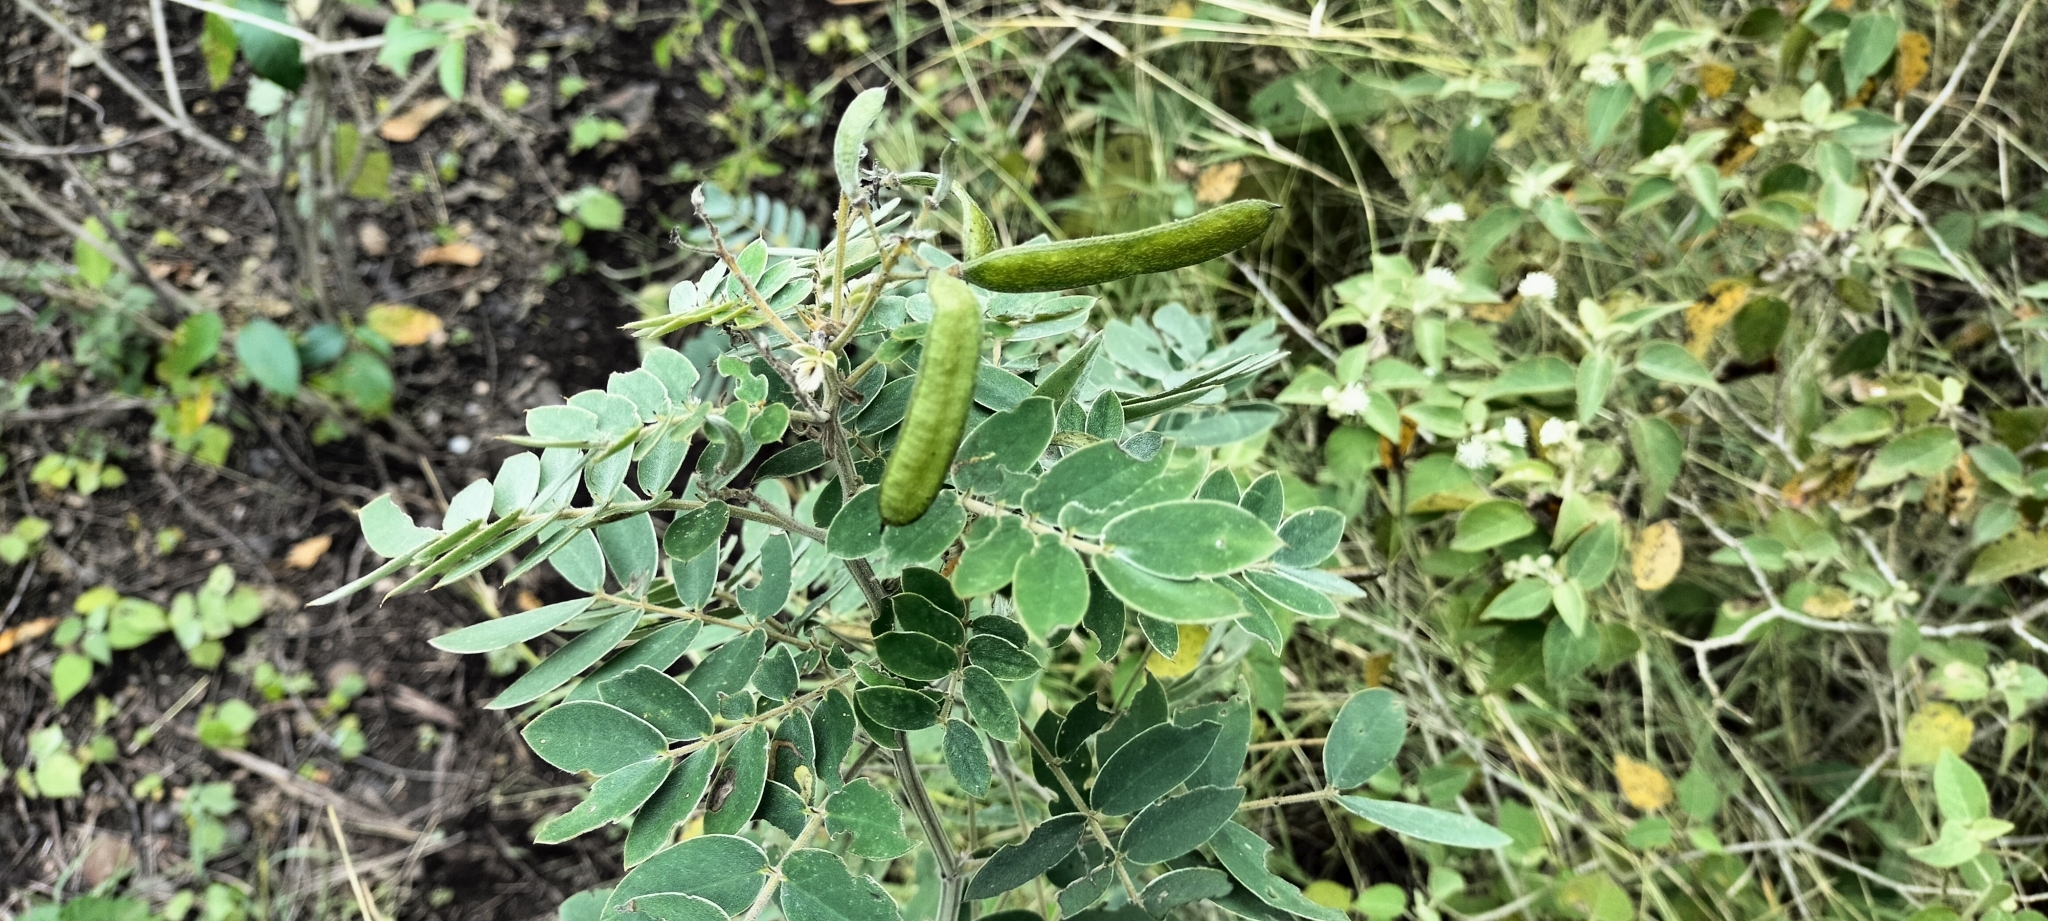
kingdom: Plantae
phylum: Tracheophyta
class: Magnoliopsida
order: Fabales
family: Fabaceae
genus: Senna
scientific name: Senna lindheimeriana
